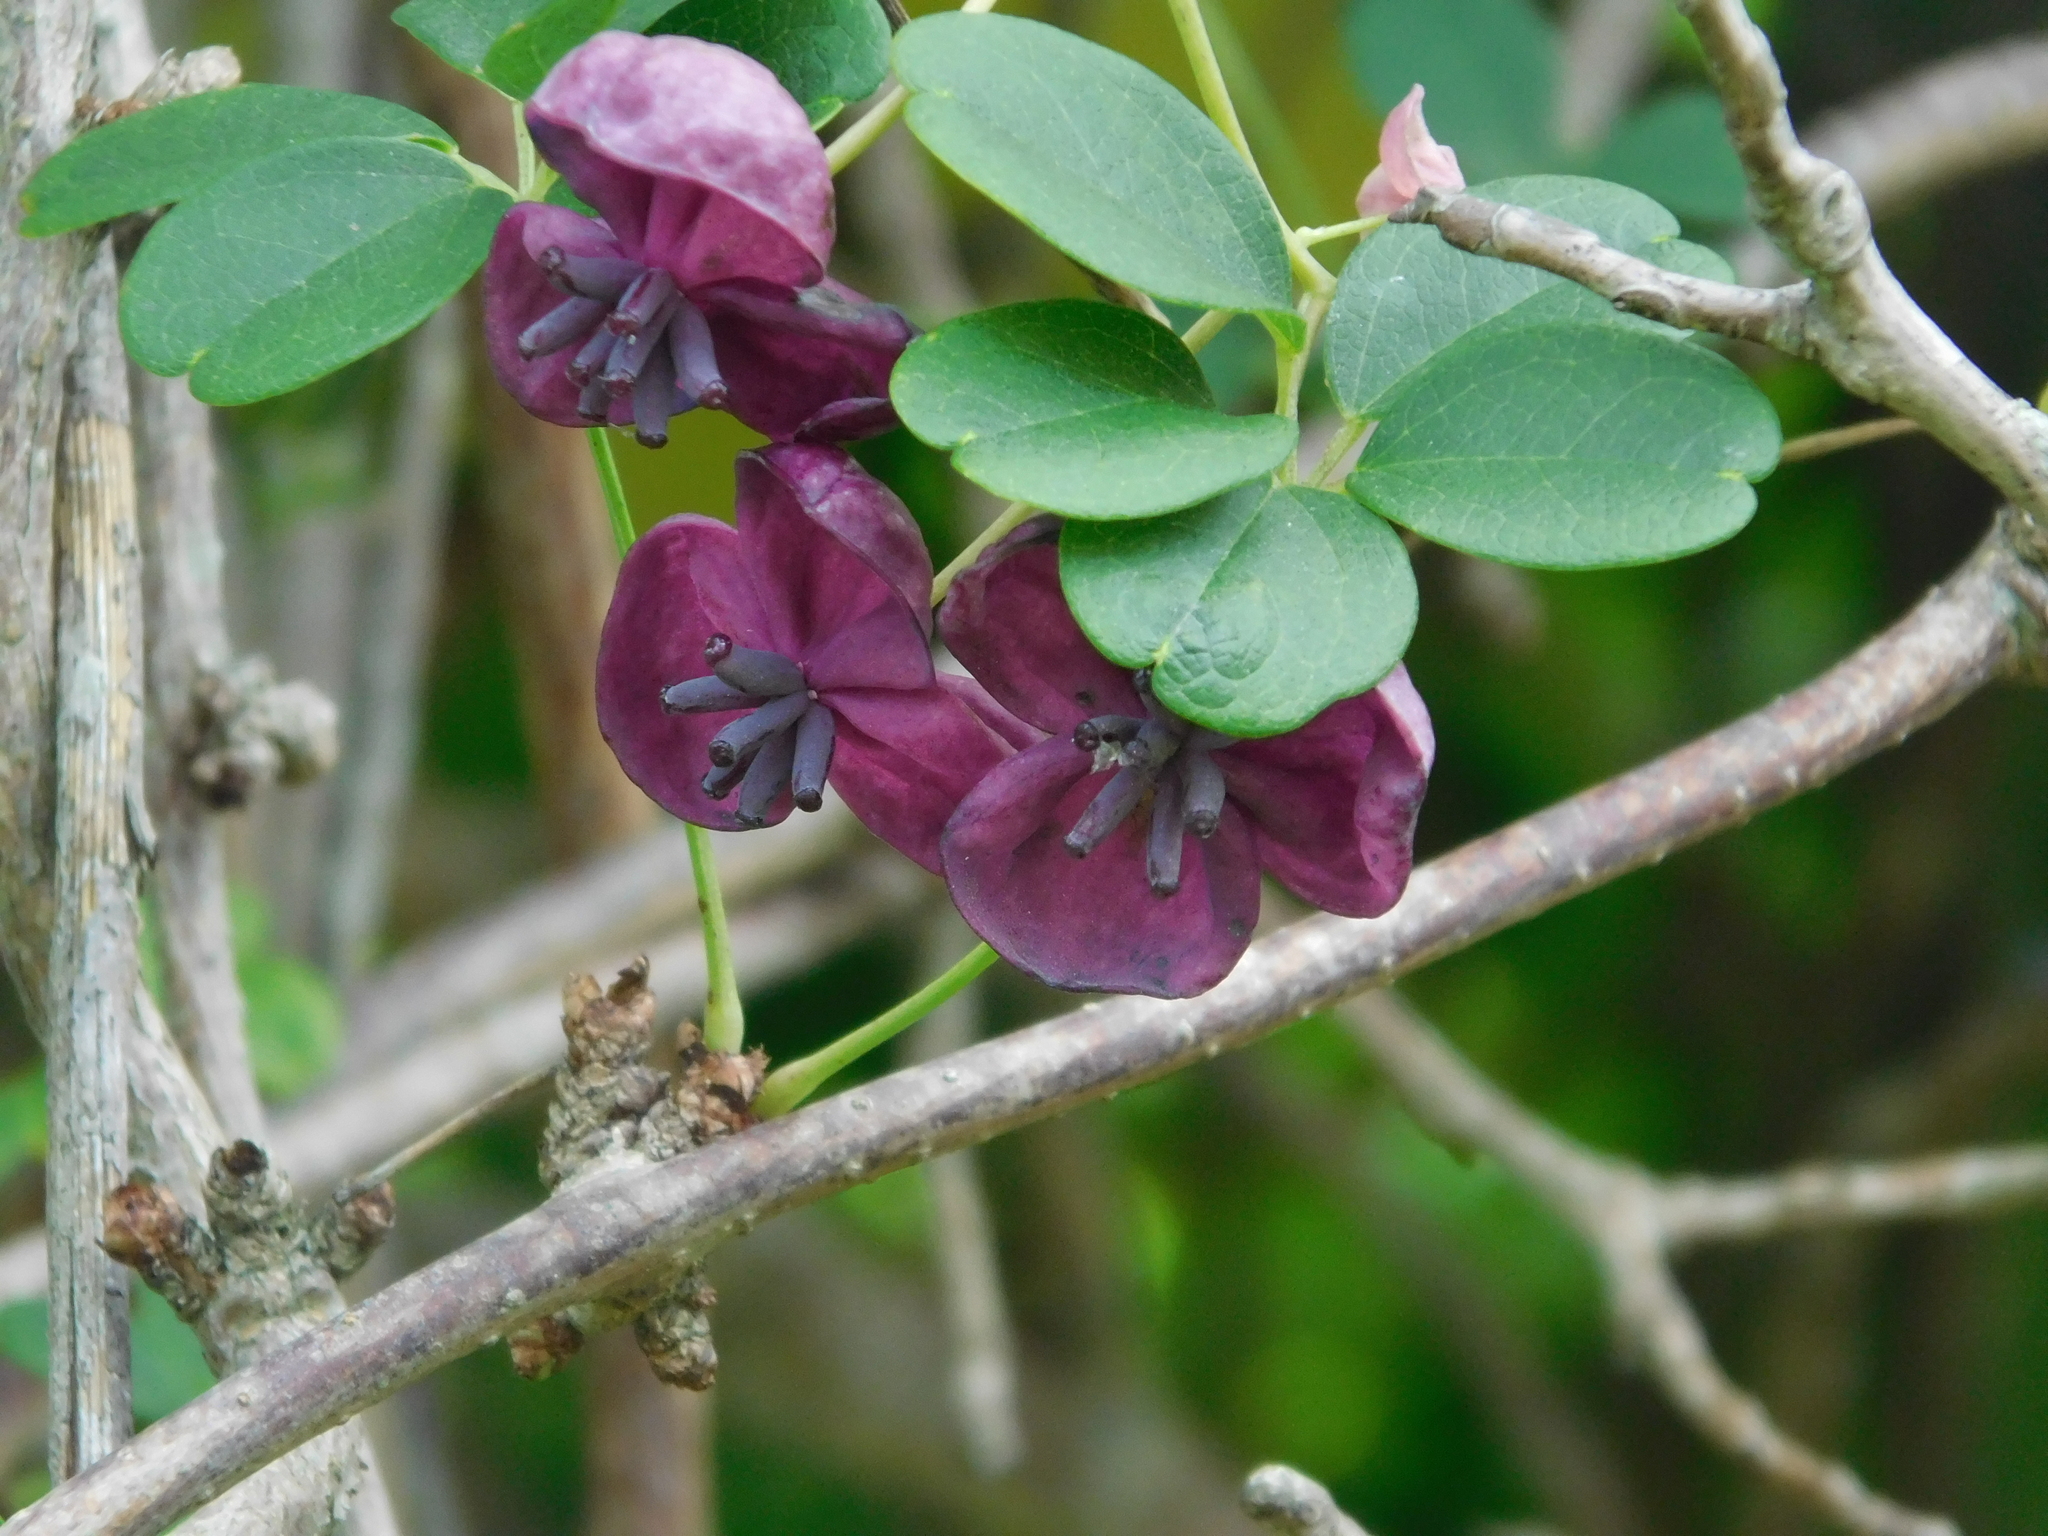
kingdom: Plantae
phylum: Tracheophyta
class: Magnoliopsida
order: Ranunculales
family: Lardizabalaceae
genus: Akebia
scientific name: Akebia quinata
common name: Five-leaf akebia
